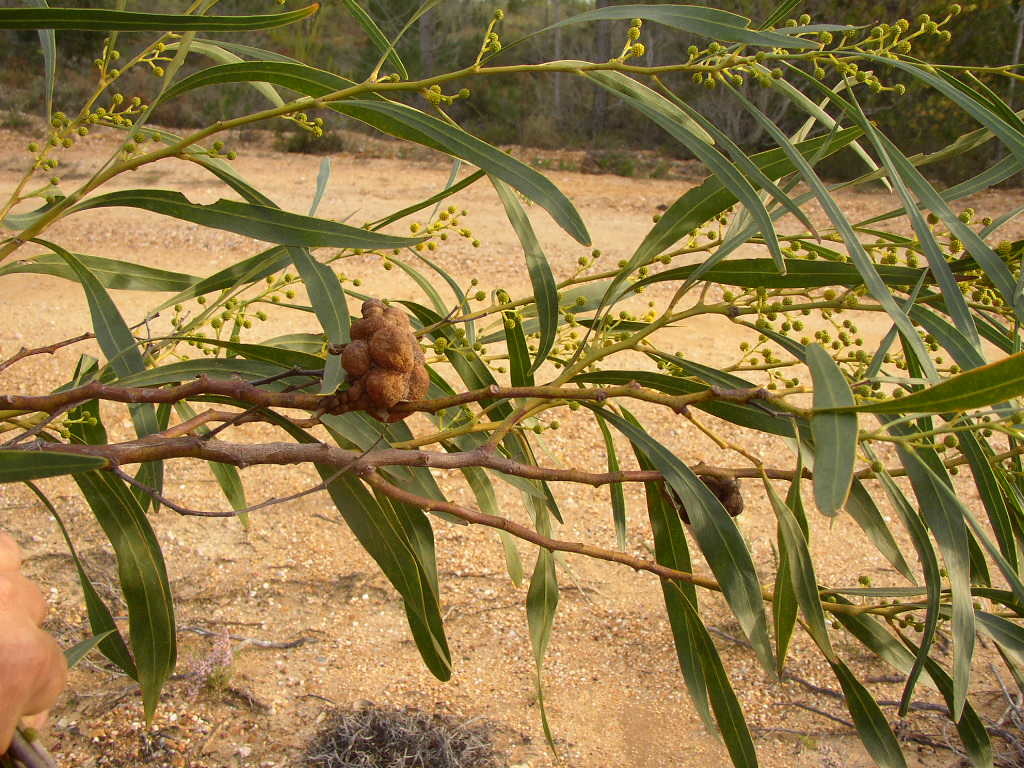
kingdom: Fungi
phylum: Basidiomycota
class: Pucciniomycetes
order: Pucciniales
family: Uromycladiaceae
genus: Uromycladium
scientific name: Uromycladium morrisii
